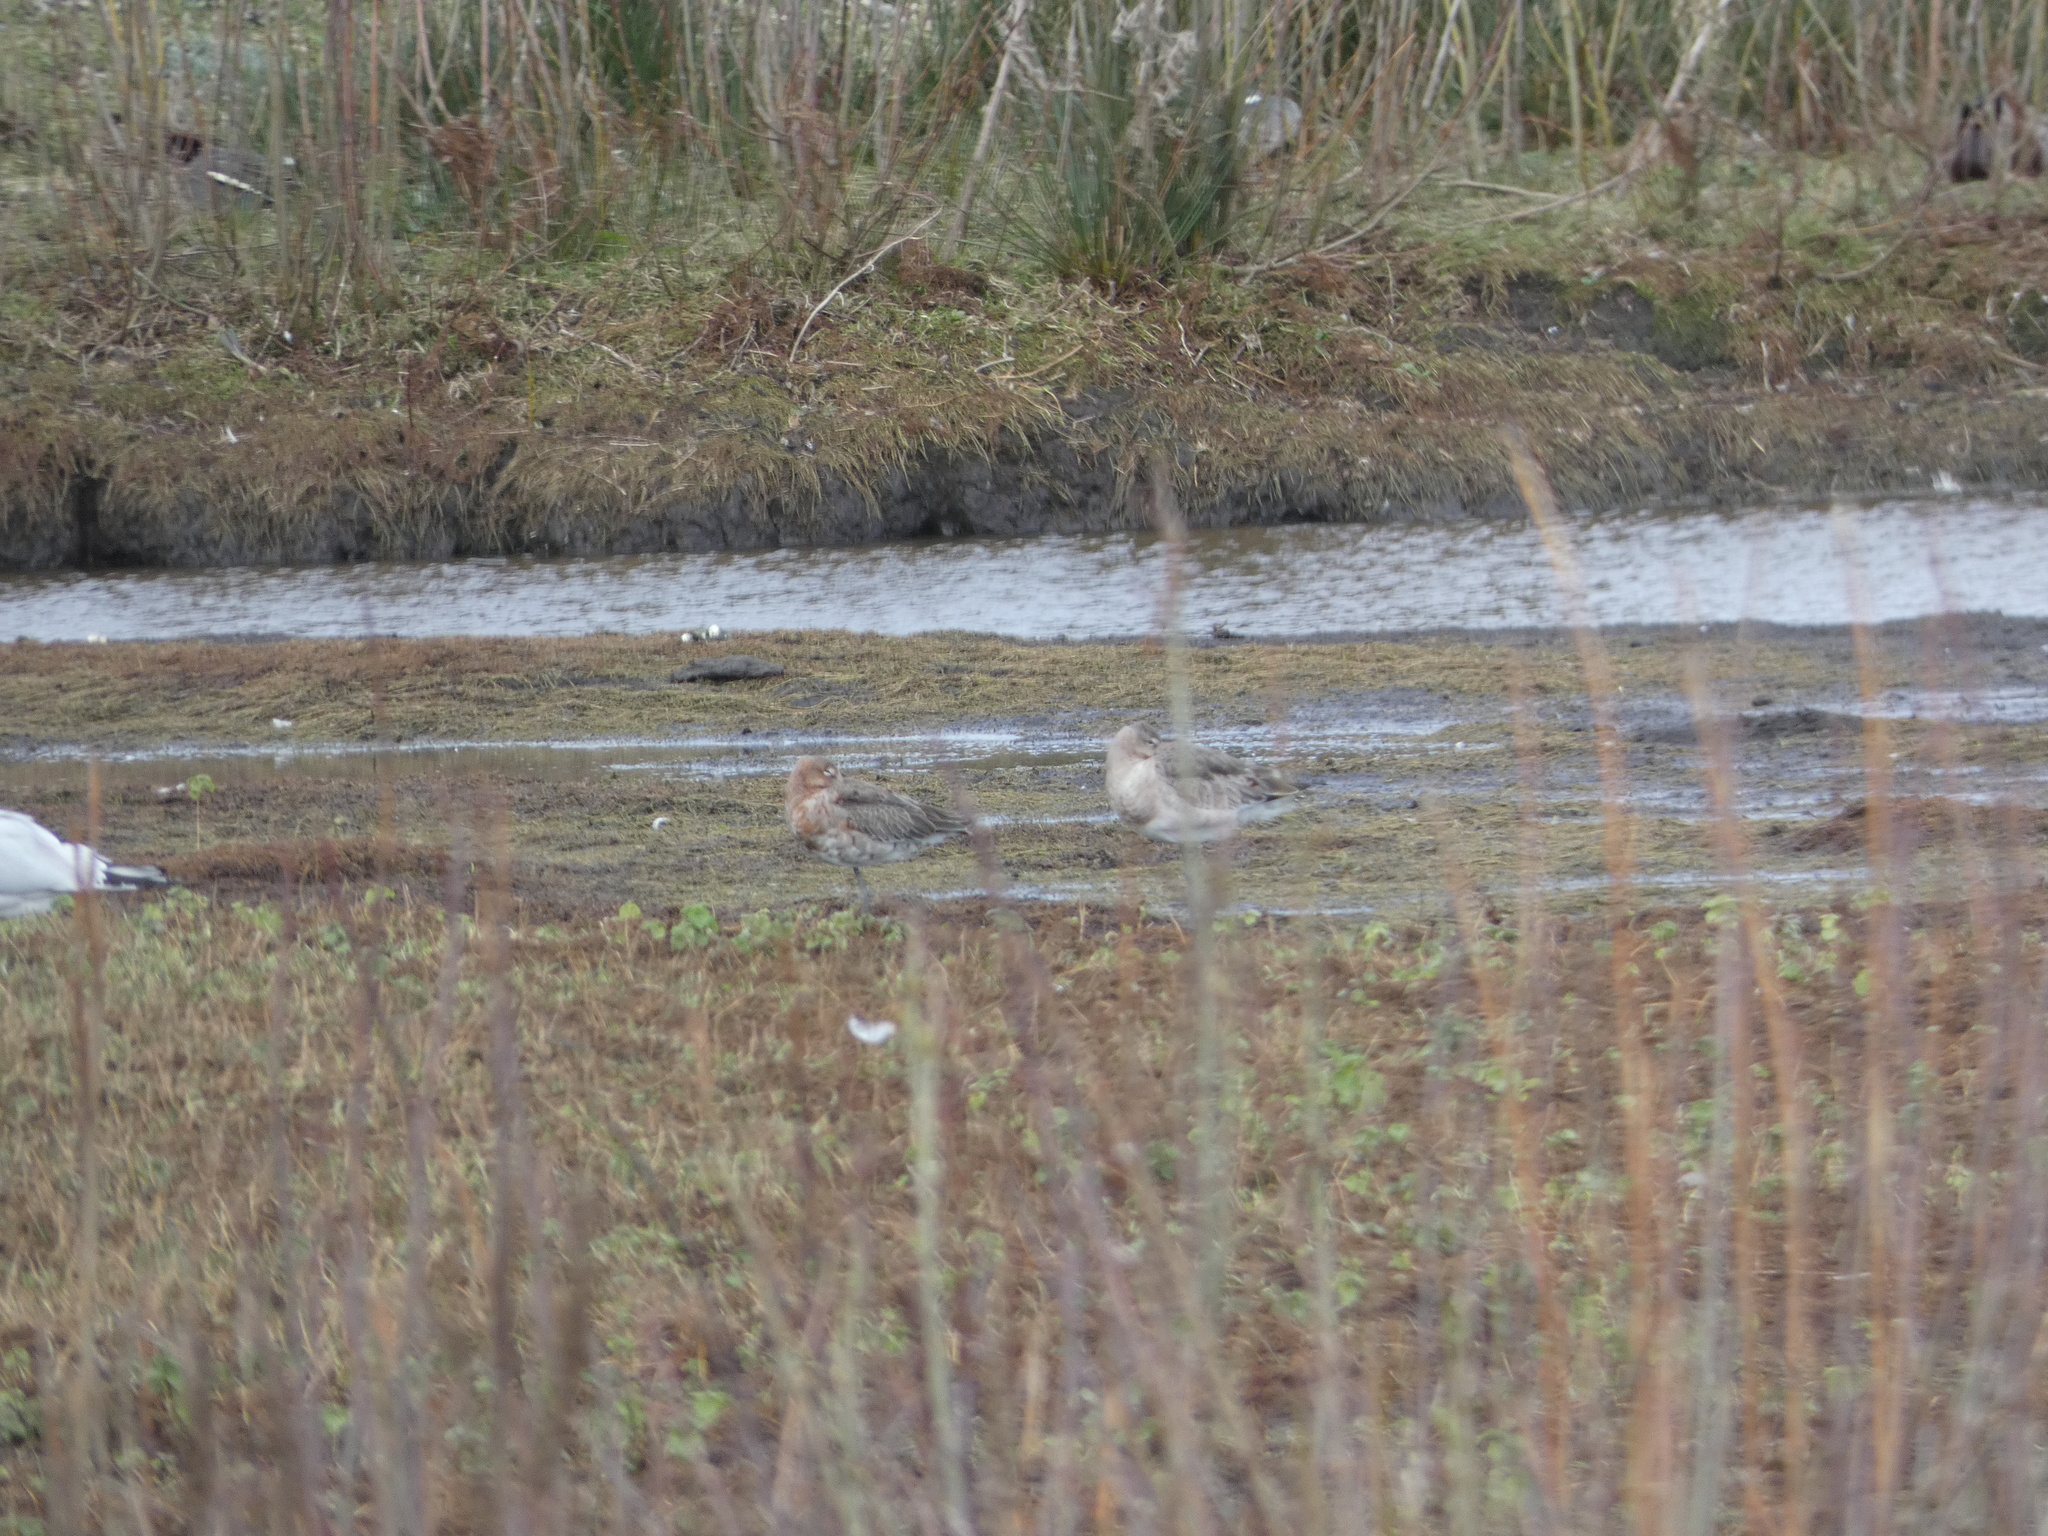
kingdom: Animalia
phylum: Chordata
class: Aves
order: Charadriiformes
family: Scolopacidae
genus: Limosa
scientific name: Limosa limosa
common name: Black-tailed godwit
